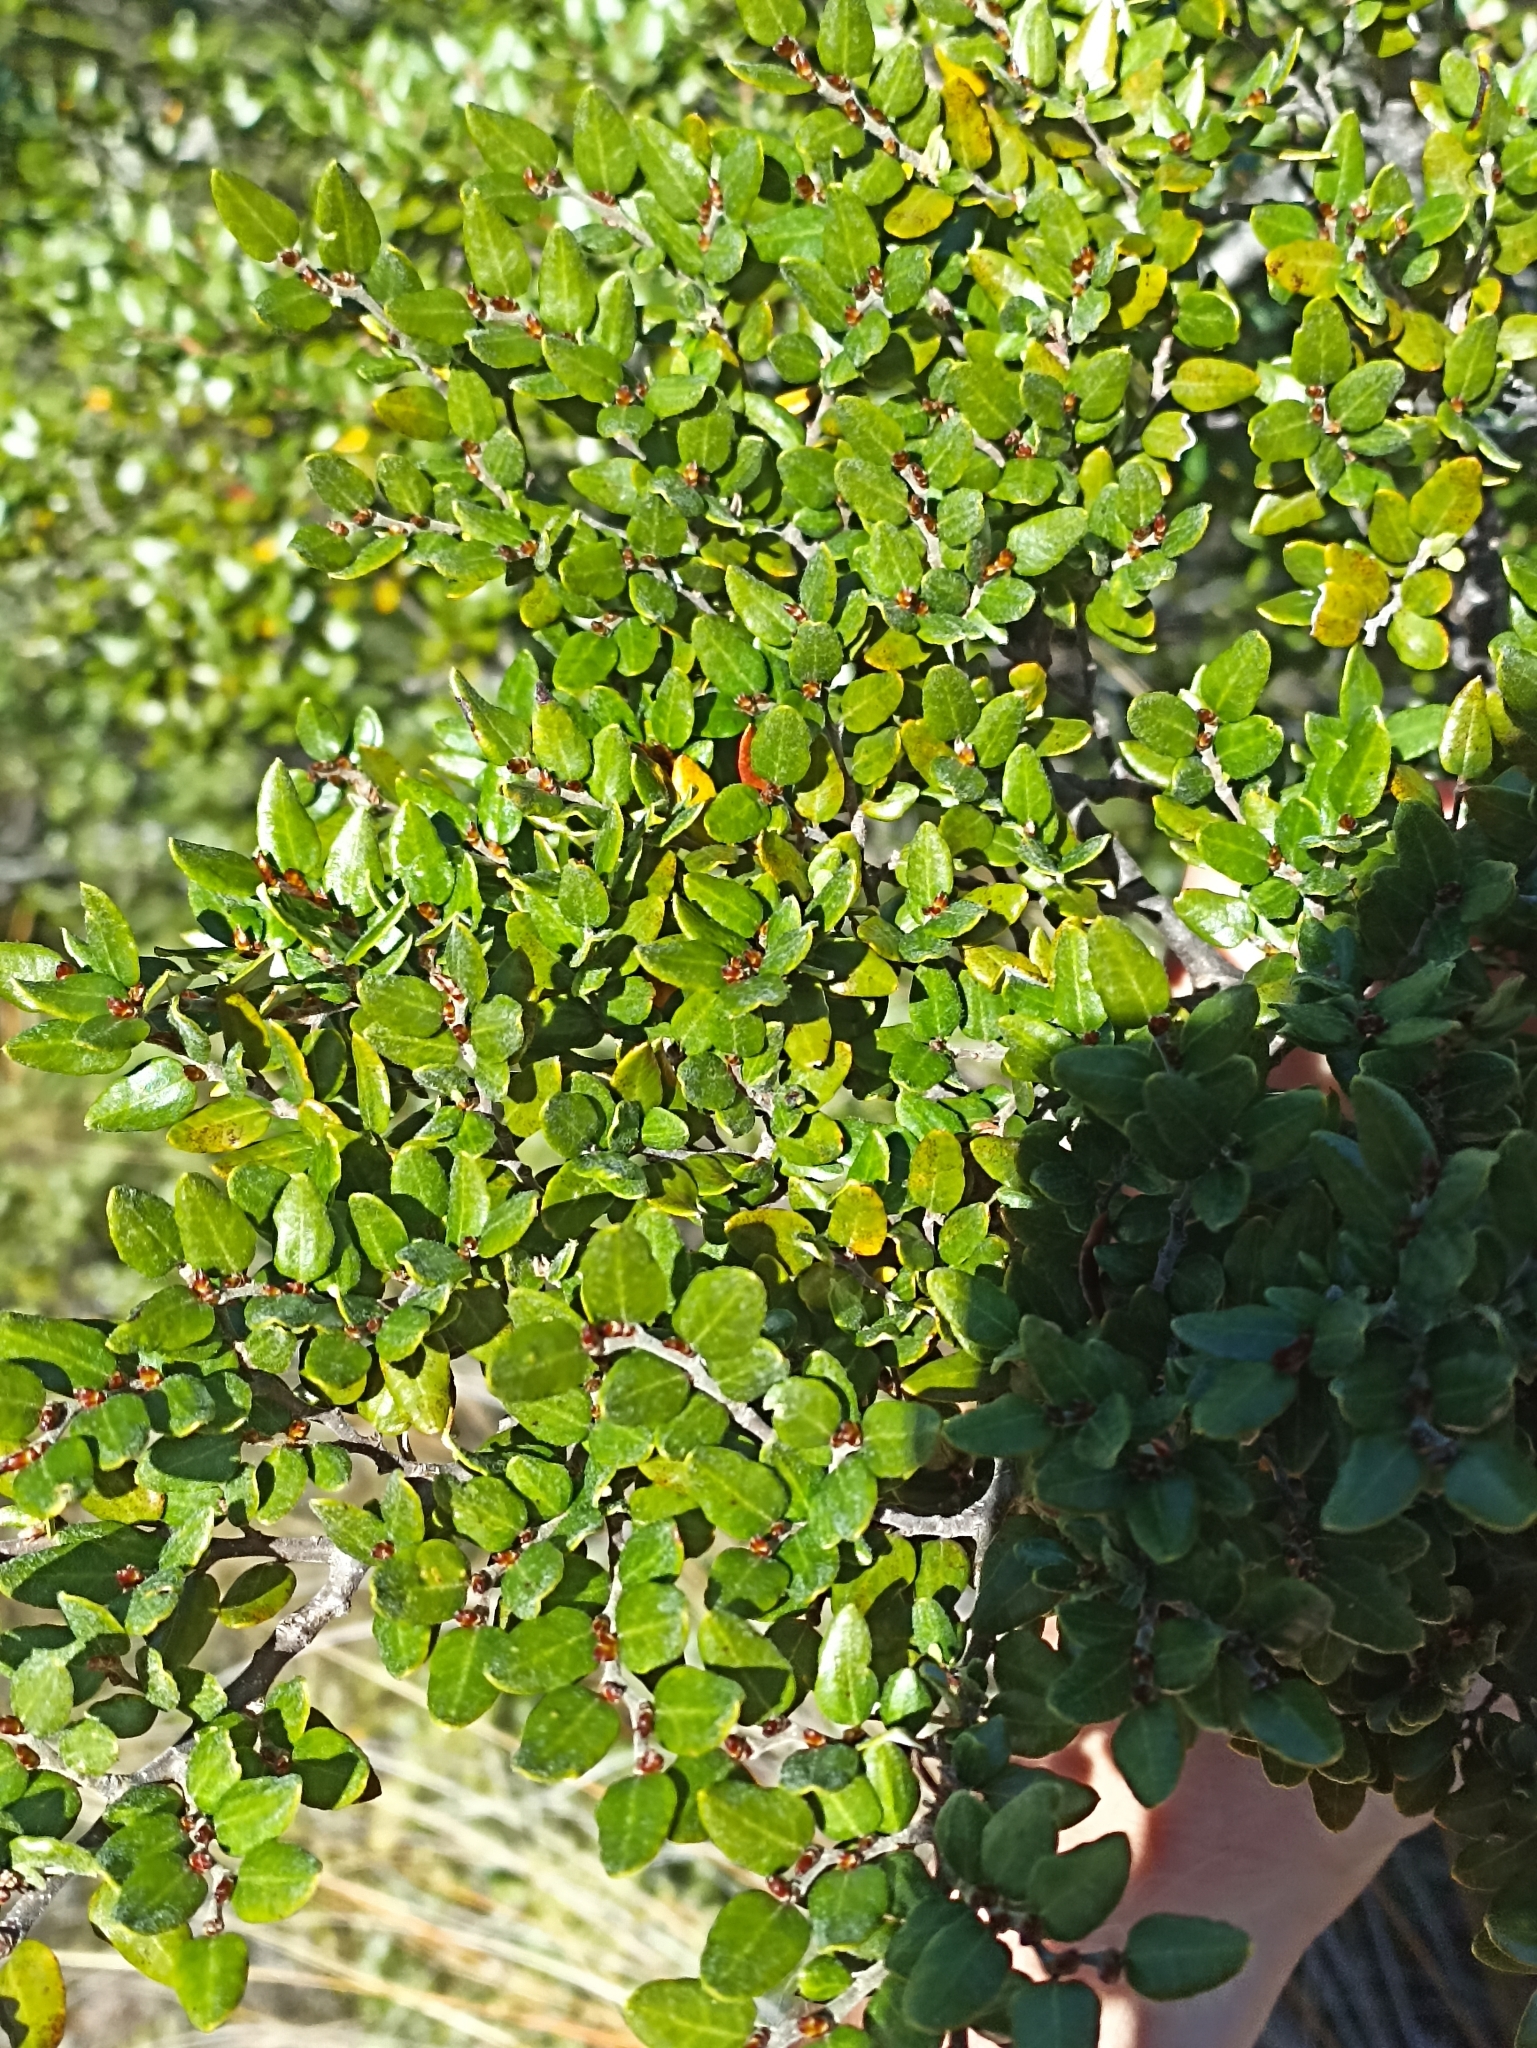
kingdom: Plantae
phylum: Tracheophyta
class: Magnoliopsida
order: Fagales
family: Nothofagaceae
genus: Nothofagus
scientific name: Nothofagus cliffortioides
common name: Mountain beech
